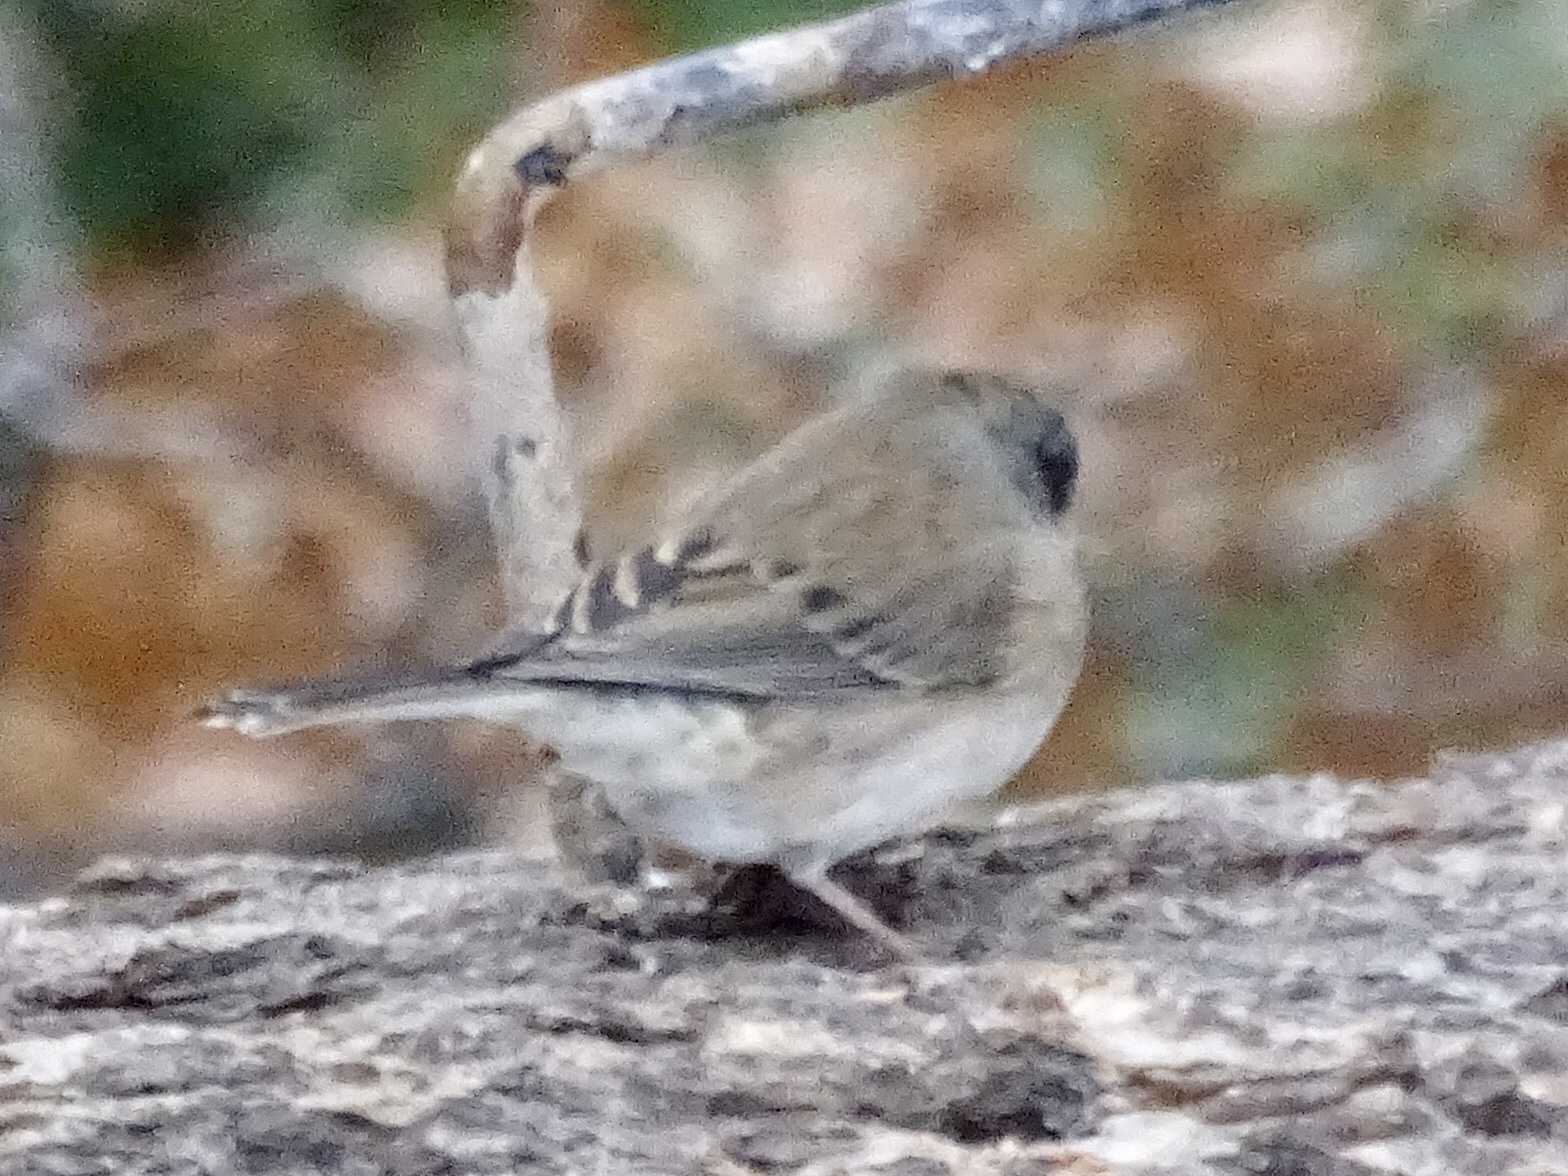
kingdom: Animalia
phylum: Chordata
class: Aves
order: Passeriformes
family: Passerellidae
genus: Junco
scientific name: Junco hyemalis
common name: Dark-eyed junco
